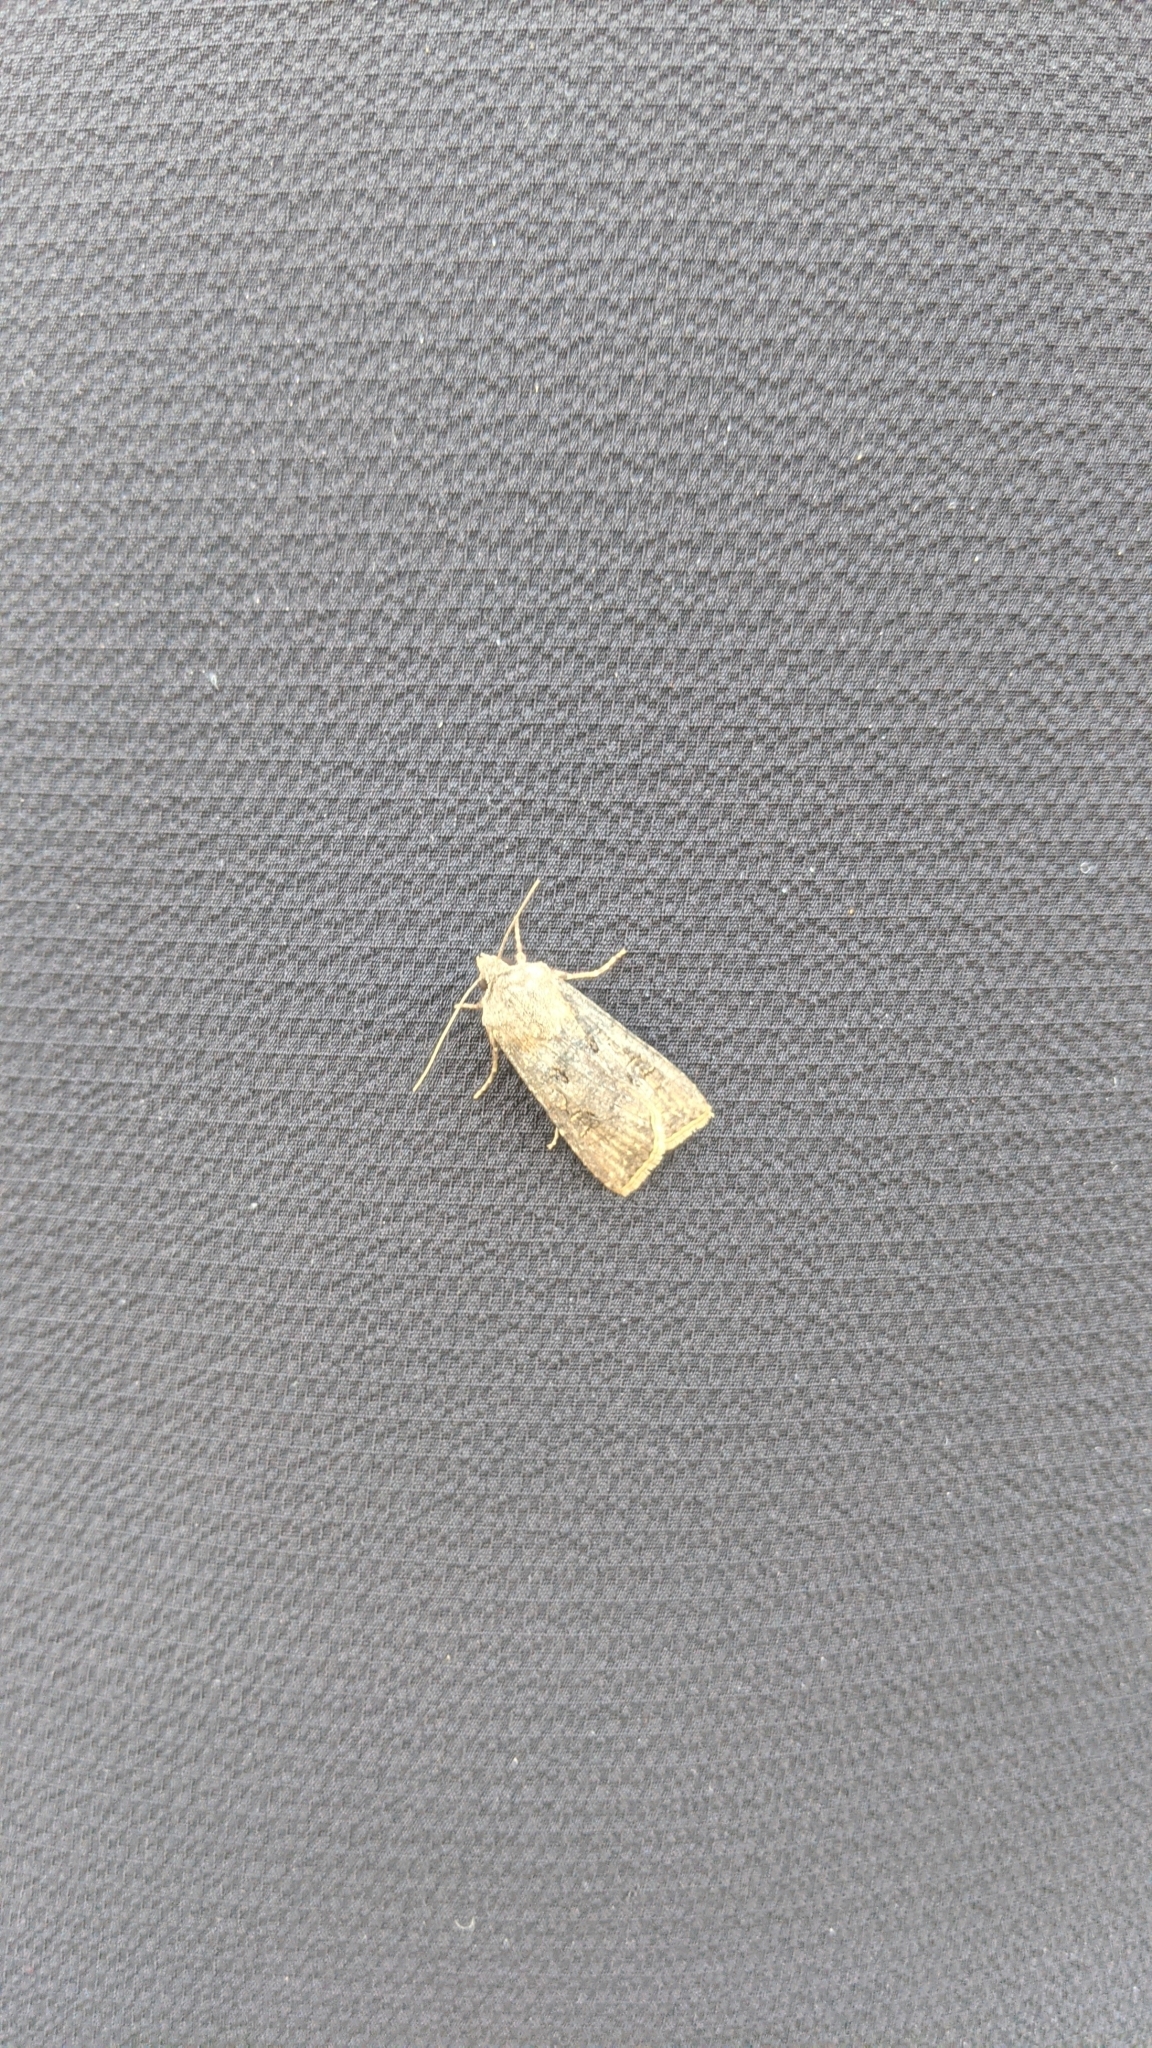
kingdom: Animalia
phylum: Arthropoda
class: Insecta
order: Lepidoptera
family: Noctuidae
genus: Agrotis
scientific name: Agrotis segetum
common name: Turnip moth
